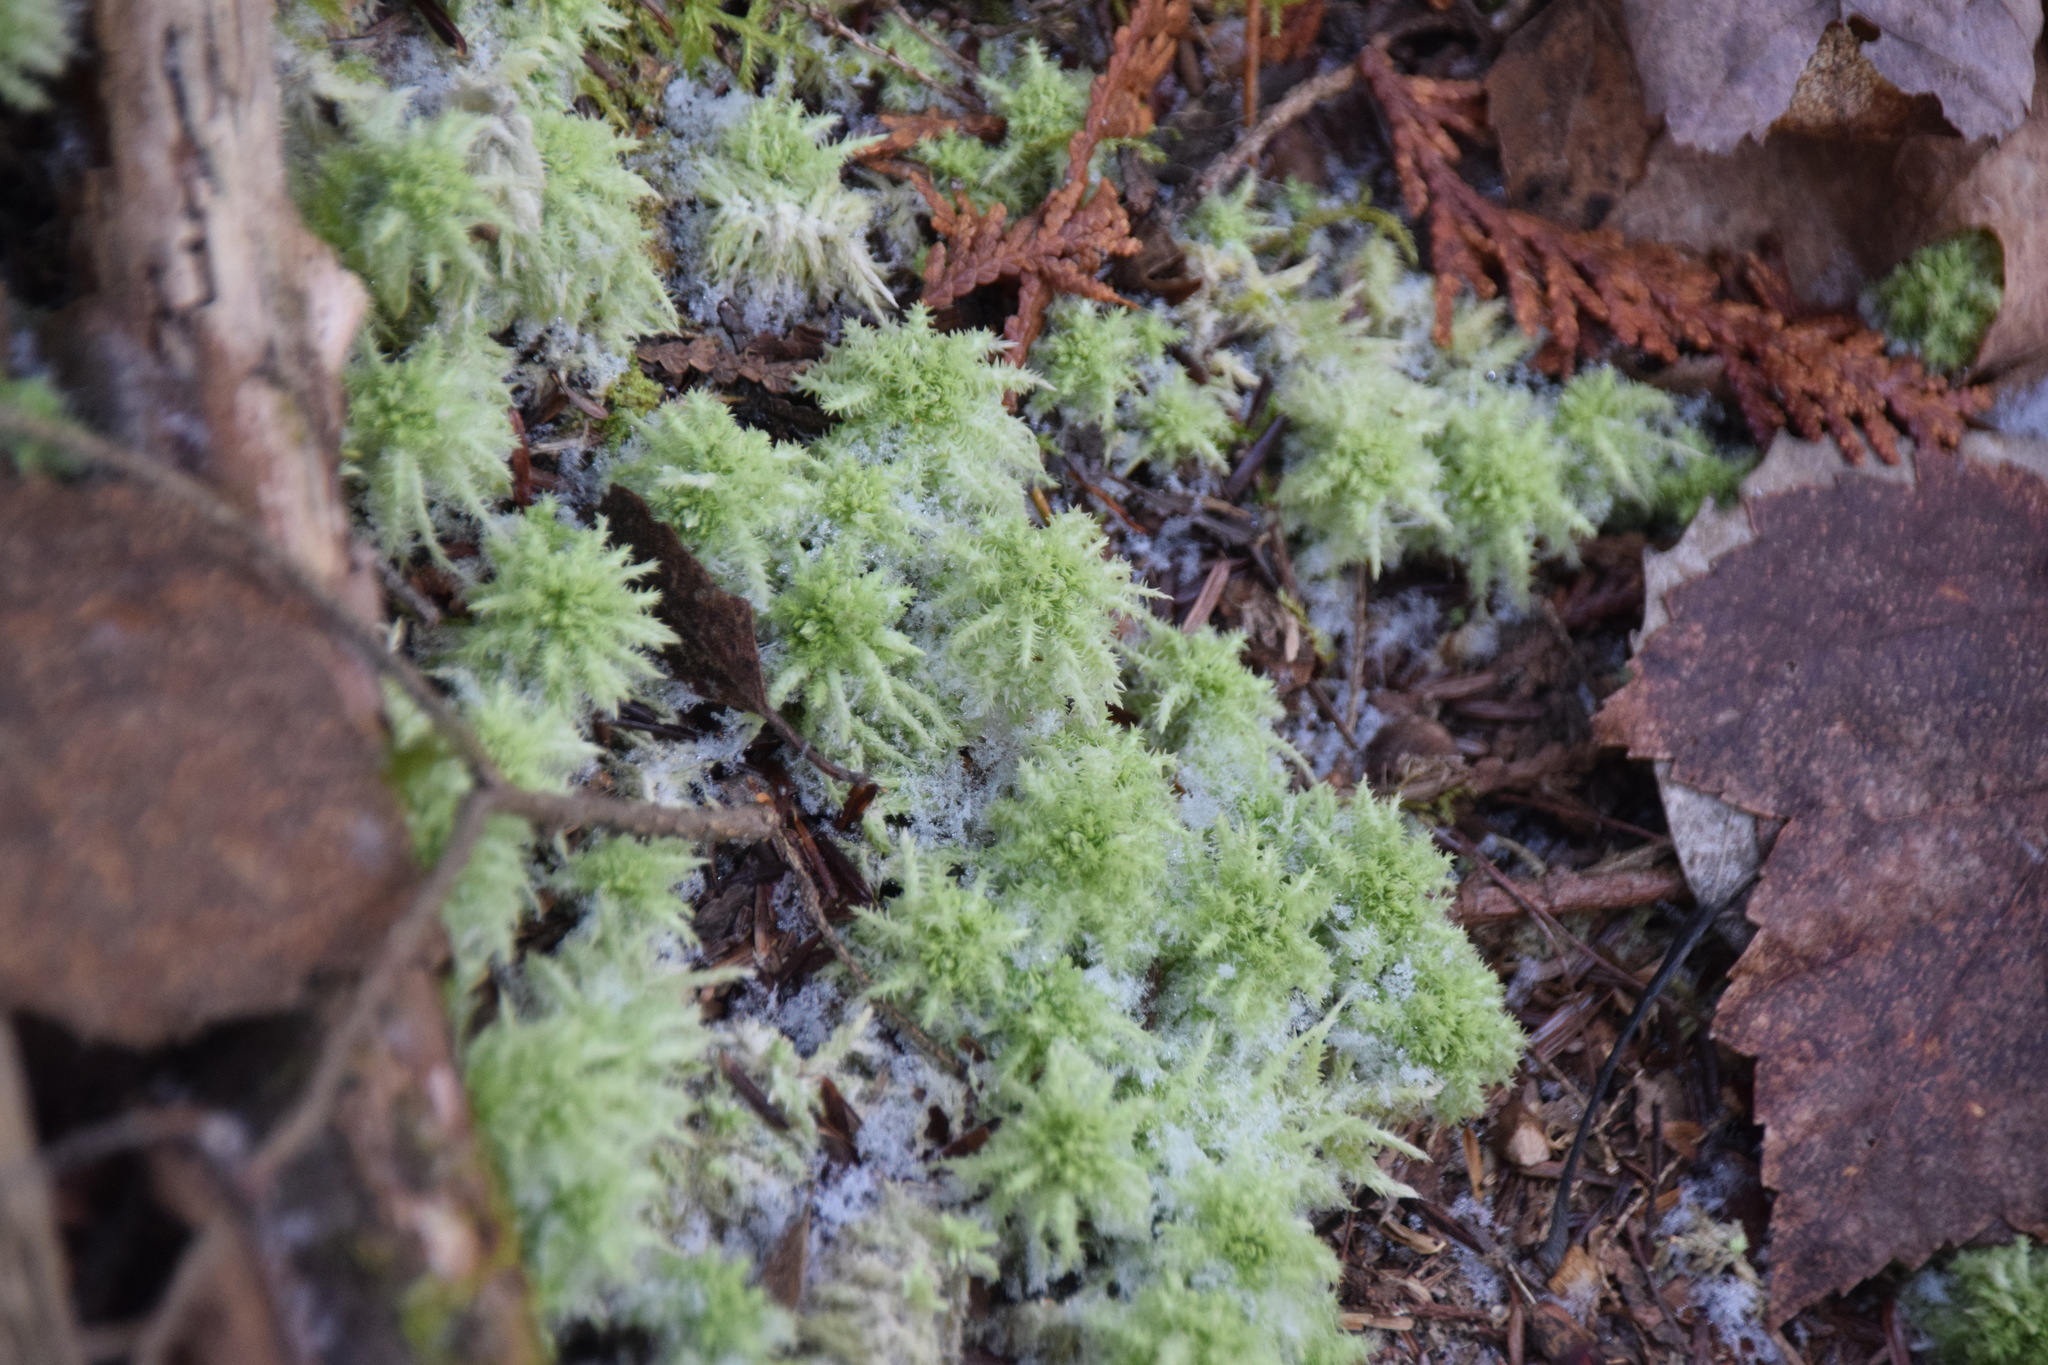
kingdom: Plantae
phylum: Bryophyta
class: Sphagnopsida
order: Sphagnales
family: Sphagnaceae
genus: Sphagnum
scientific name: Sphagnum squarrosum
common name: Shaggy peat moss
